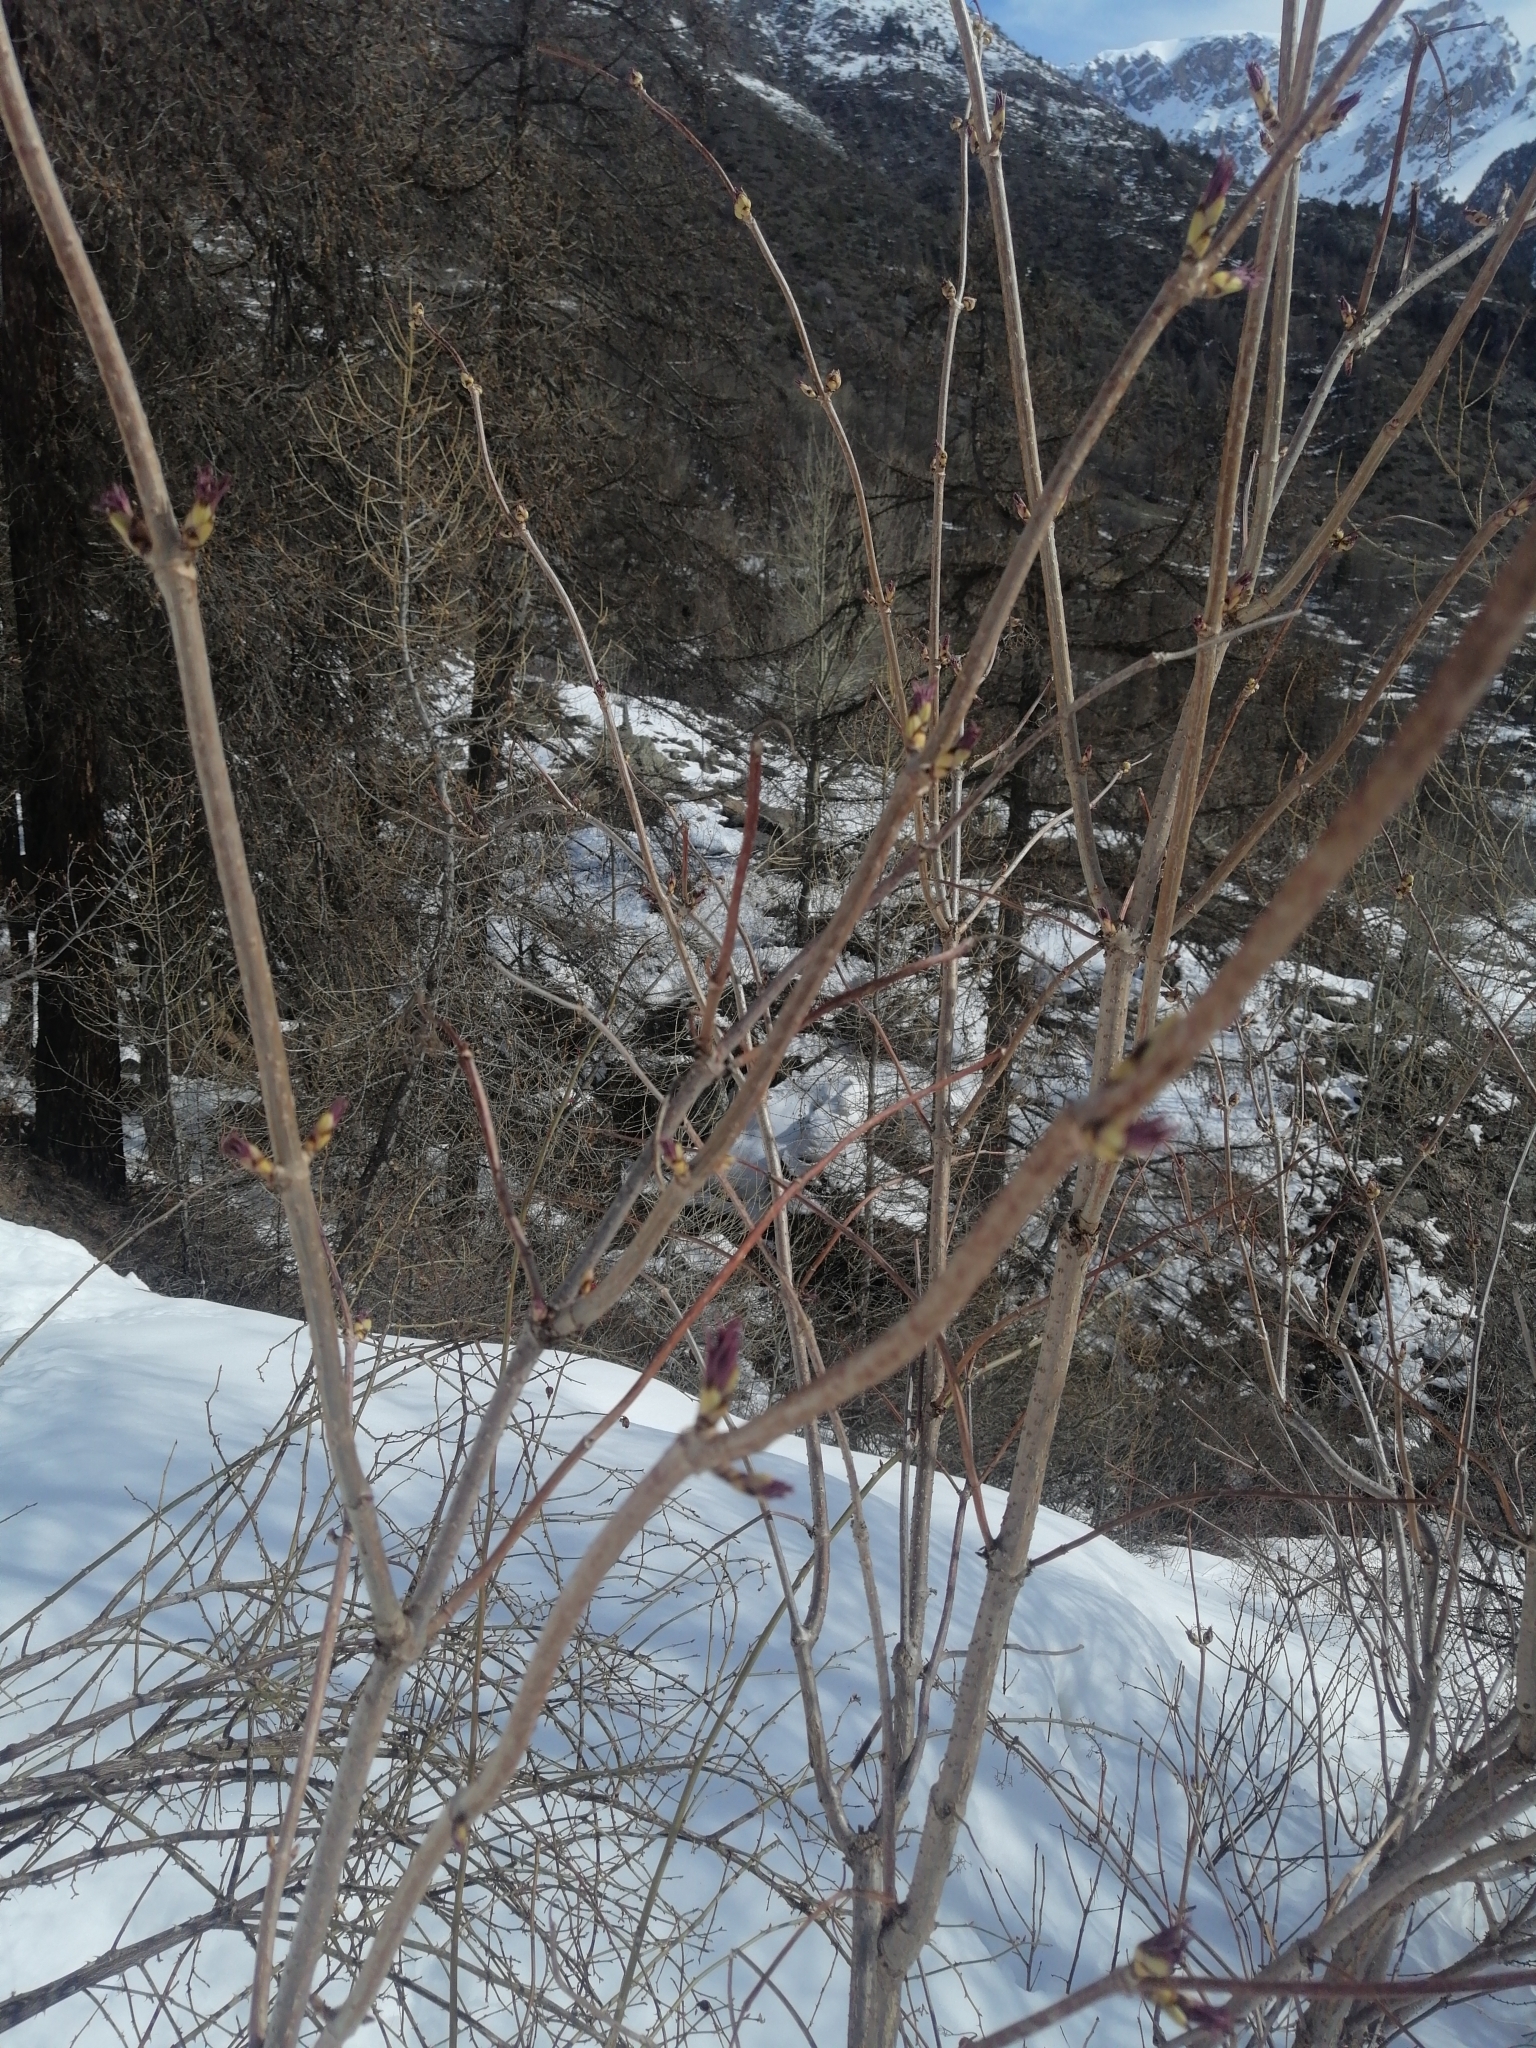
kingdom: Plantae
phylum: Tracheophyta
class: Magnoliopsida
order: Dipsacales
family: Viburnaceae
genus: Sambucus
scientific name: Sambucus racemosa
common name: Red-berried elder
